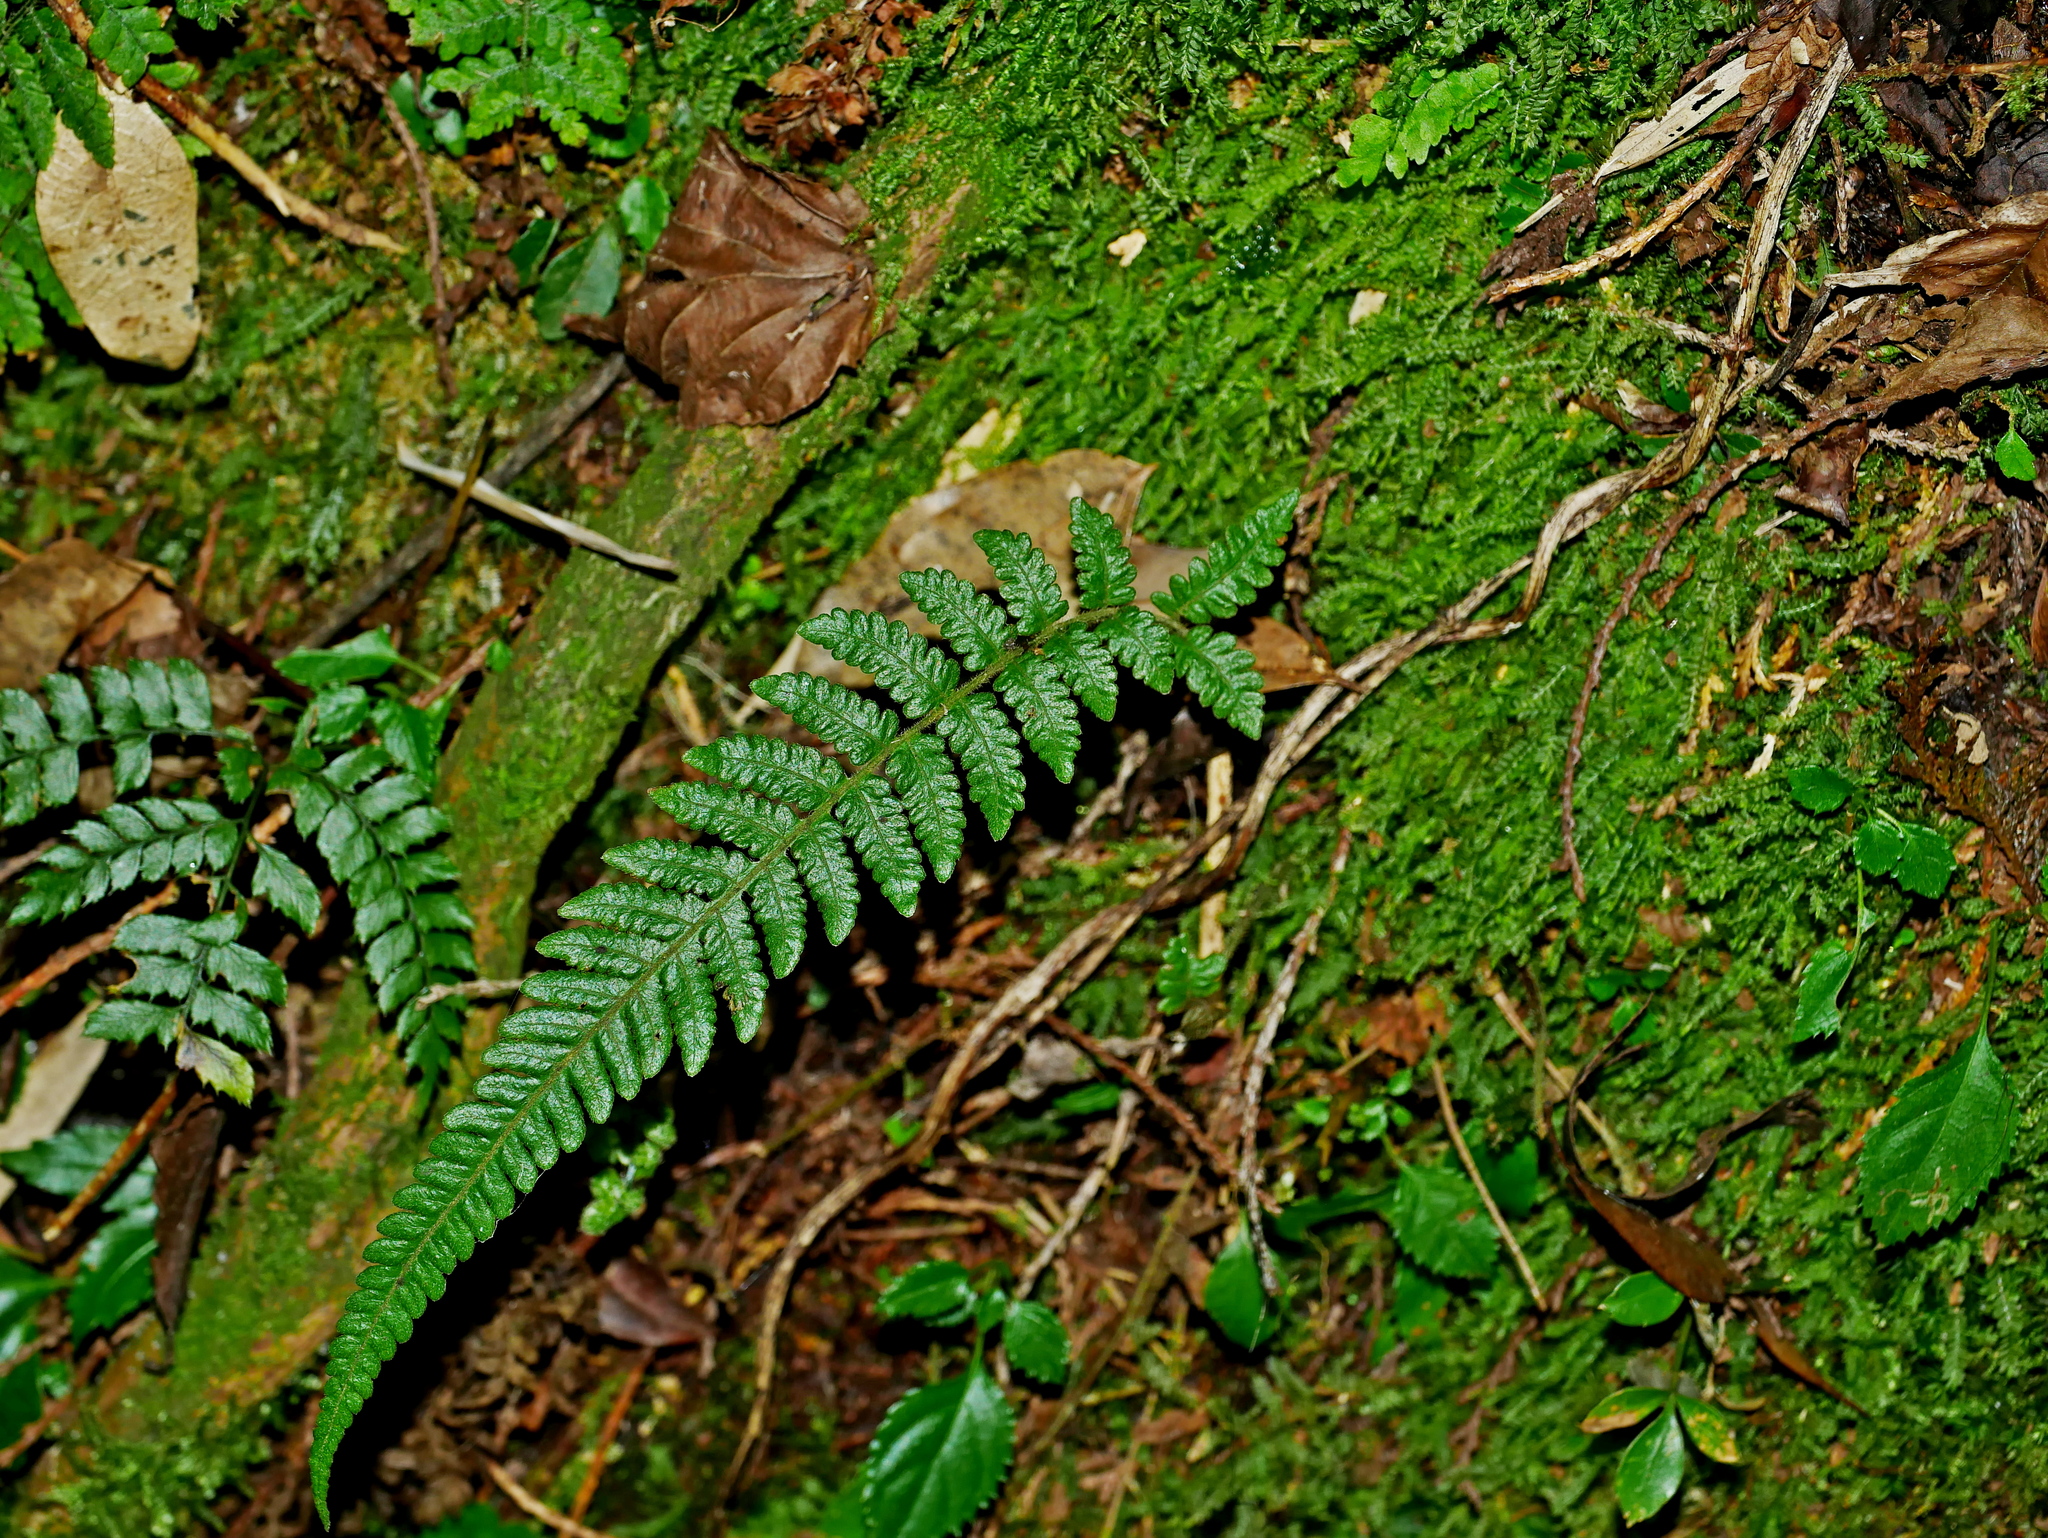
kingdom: Plantae
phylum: Tracheophyta
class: Polypodiopsida
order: Polypodiales
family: Thelypteridaceae
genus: Leptogramma
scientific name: Leptogramma tottoides
